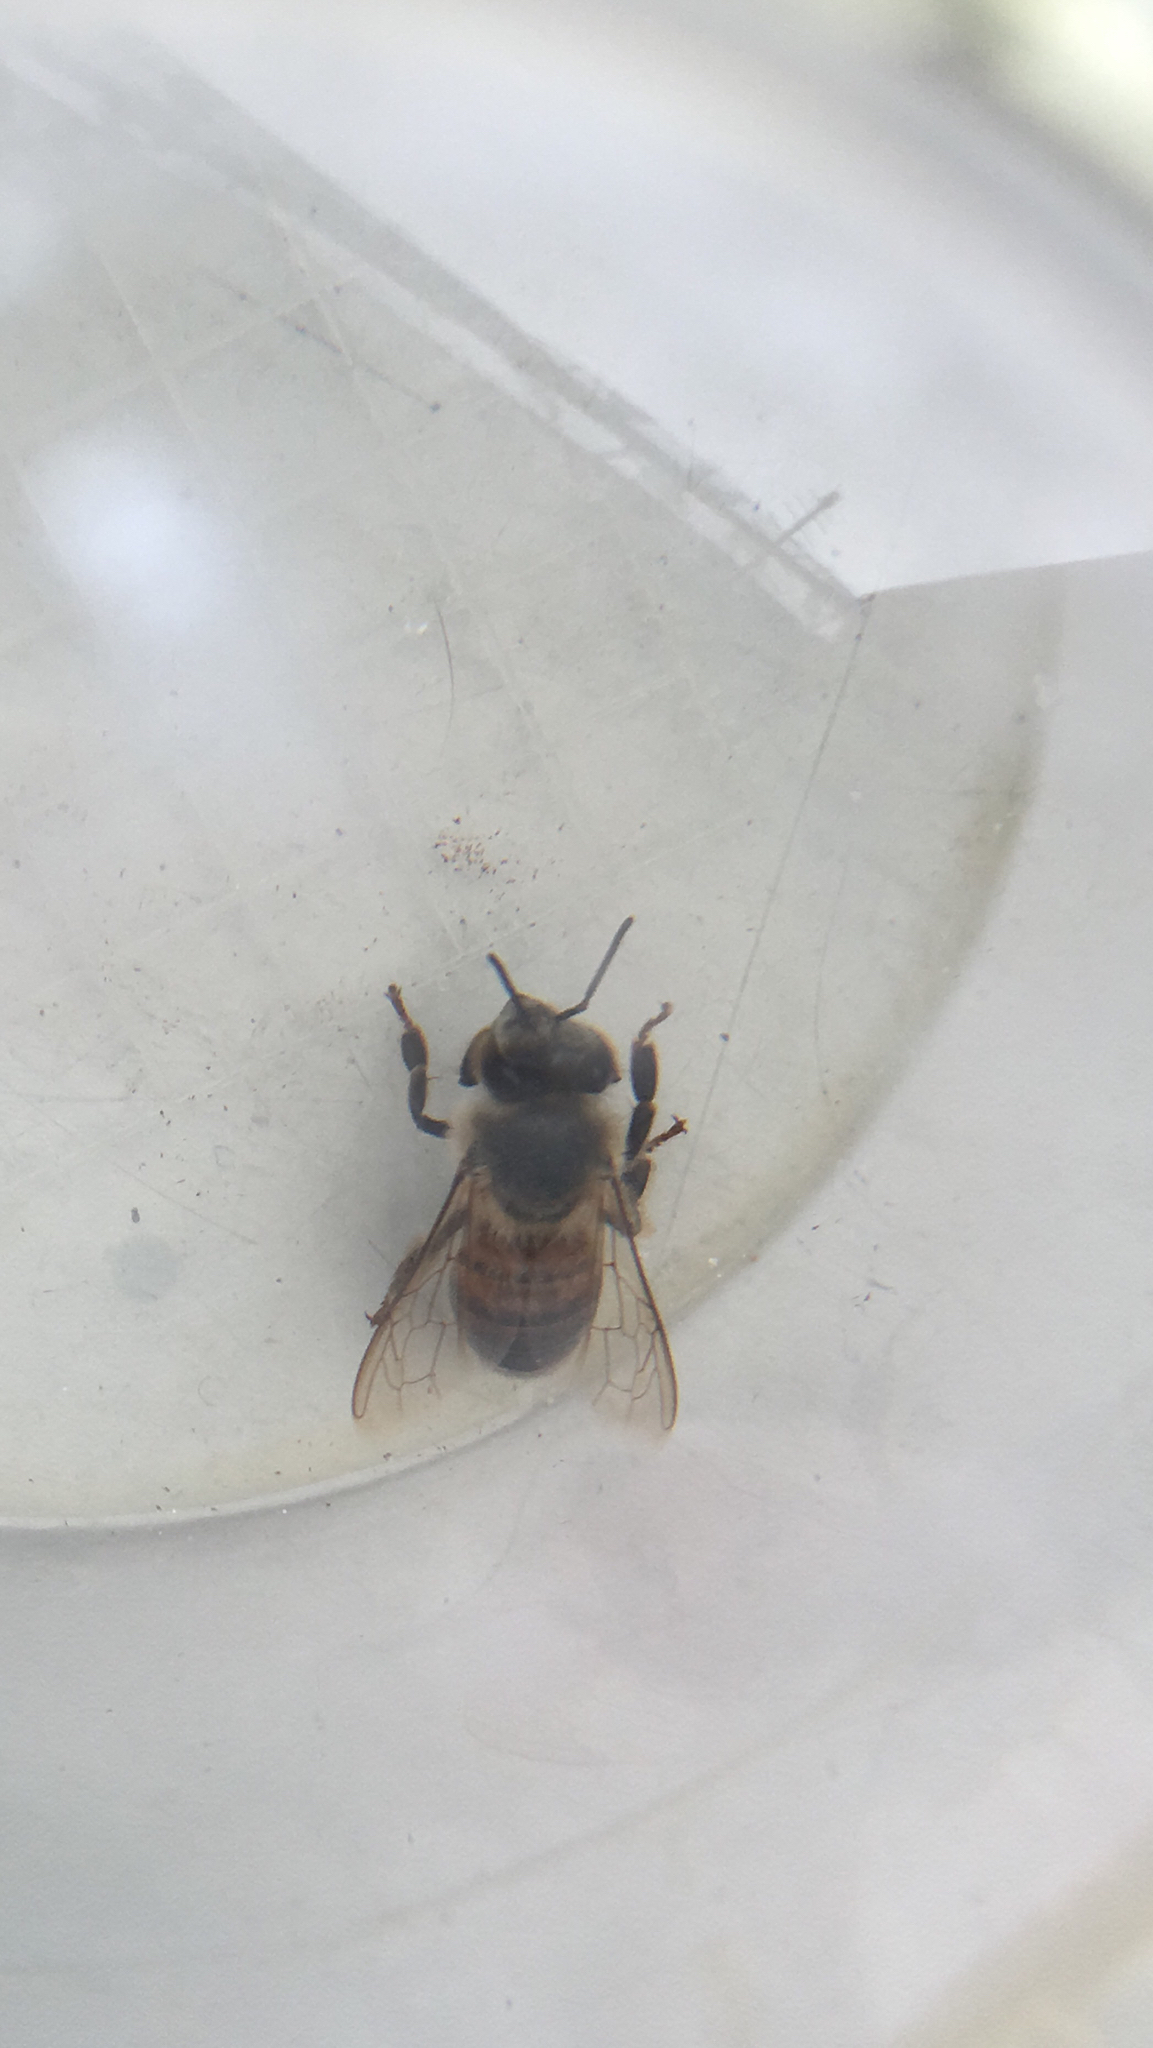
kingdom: Animalia
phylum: Arthropoda
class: Insecta
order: Hymenoptera
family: Apidae
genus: Apis
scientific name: Apis mellifera
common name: Honey bee
